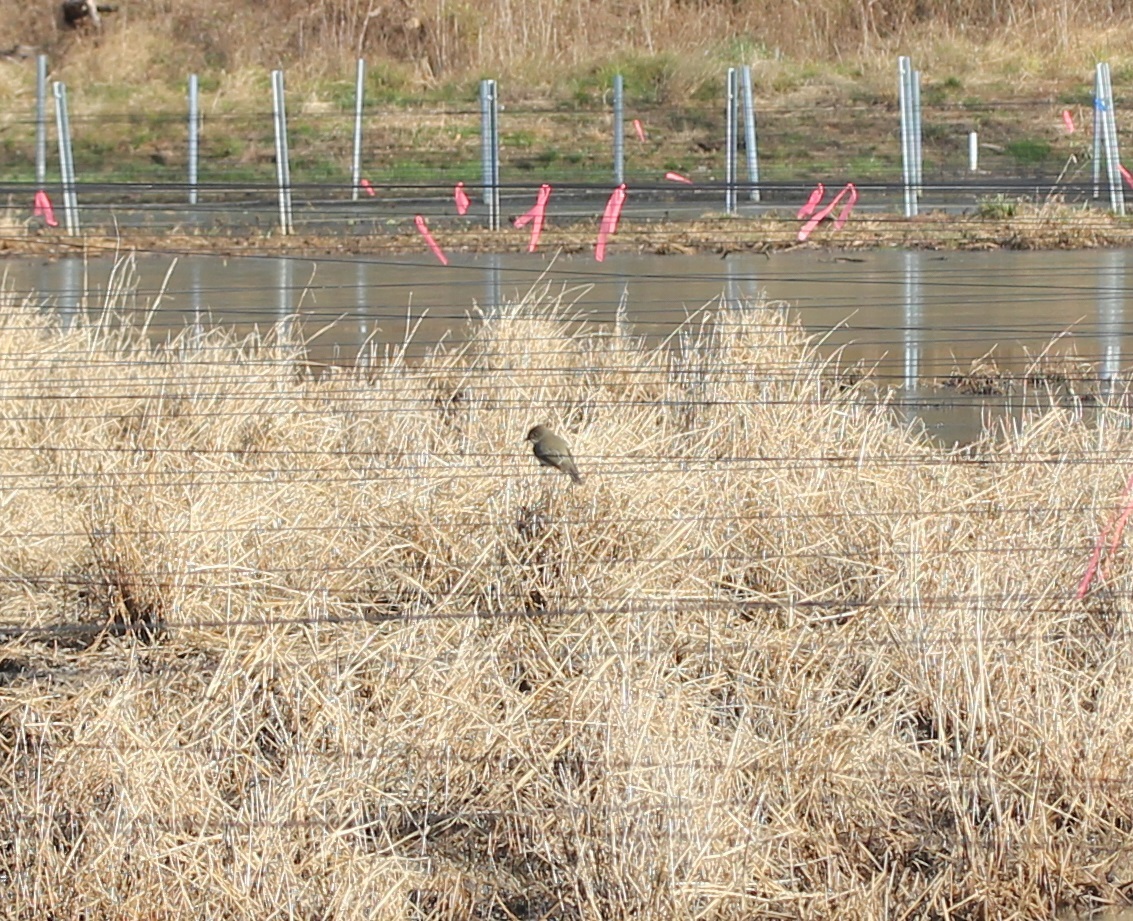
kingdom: Animalia
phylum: Chordata
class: Aves
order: Passeriformes
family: Tyrannidae
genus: Sayornis
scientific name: Sayornis phoebe
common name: Eastern phoebe
